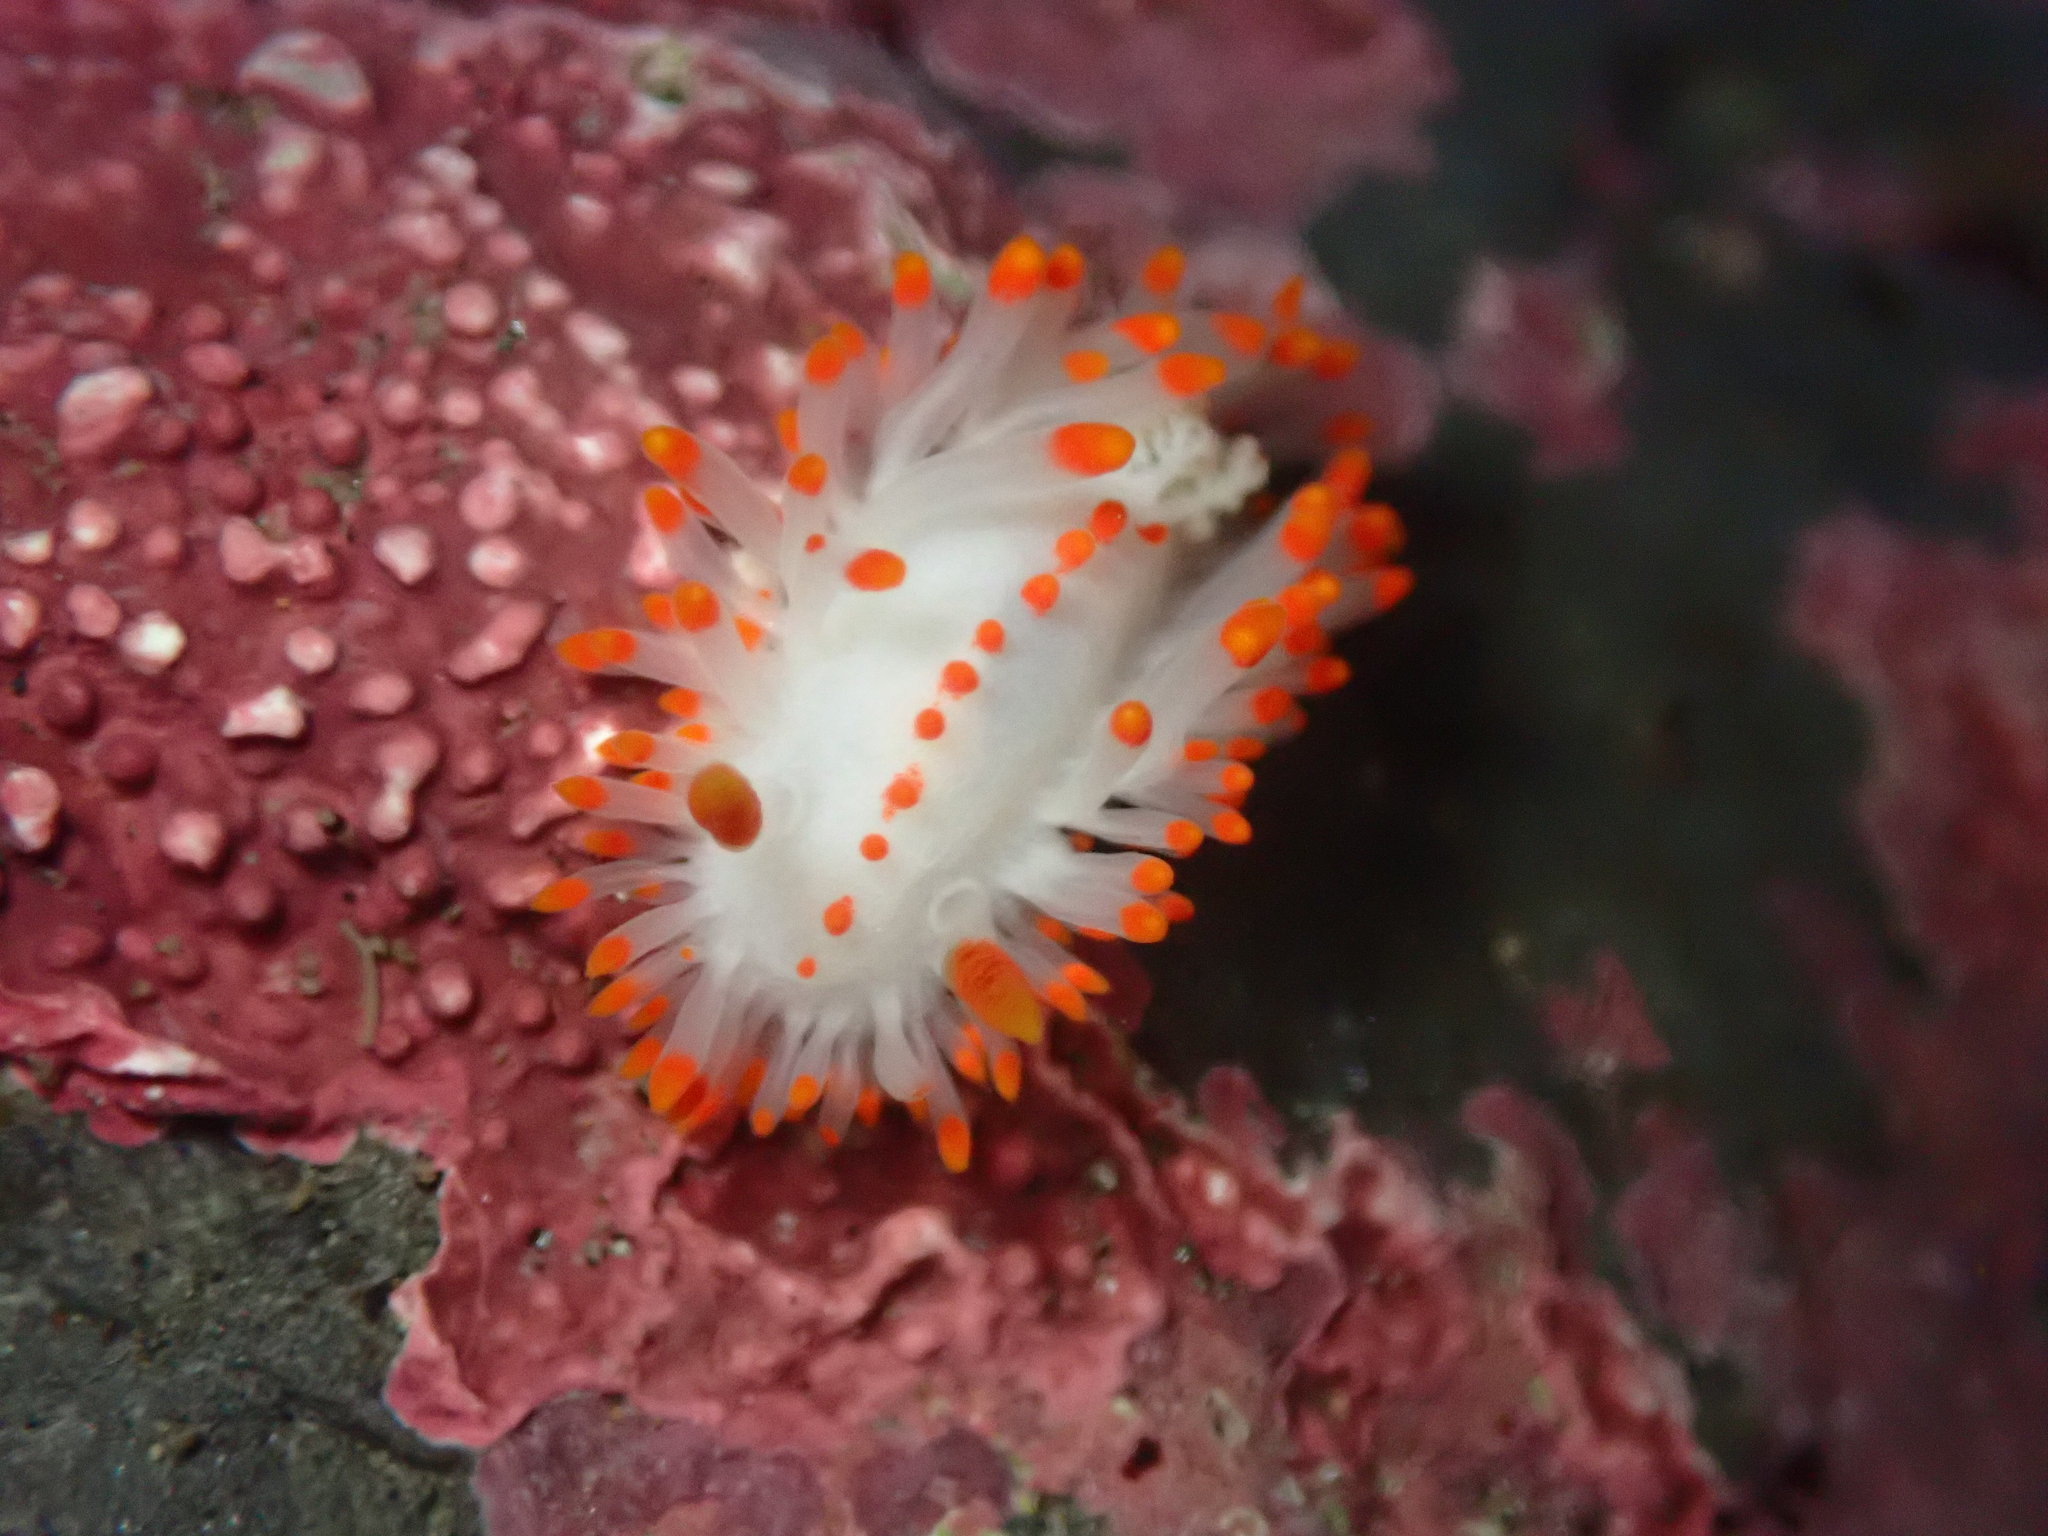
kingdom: Animalia
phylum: Mollusca
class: Gastropoda
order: Nudibranchia
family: Polyceridae
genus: Limacia
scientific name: Limacia mcdonaldi
